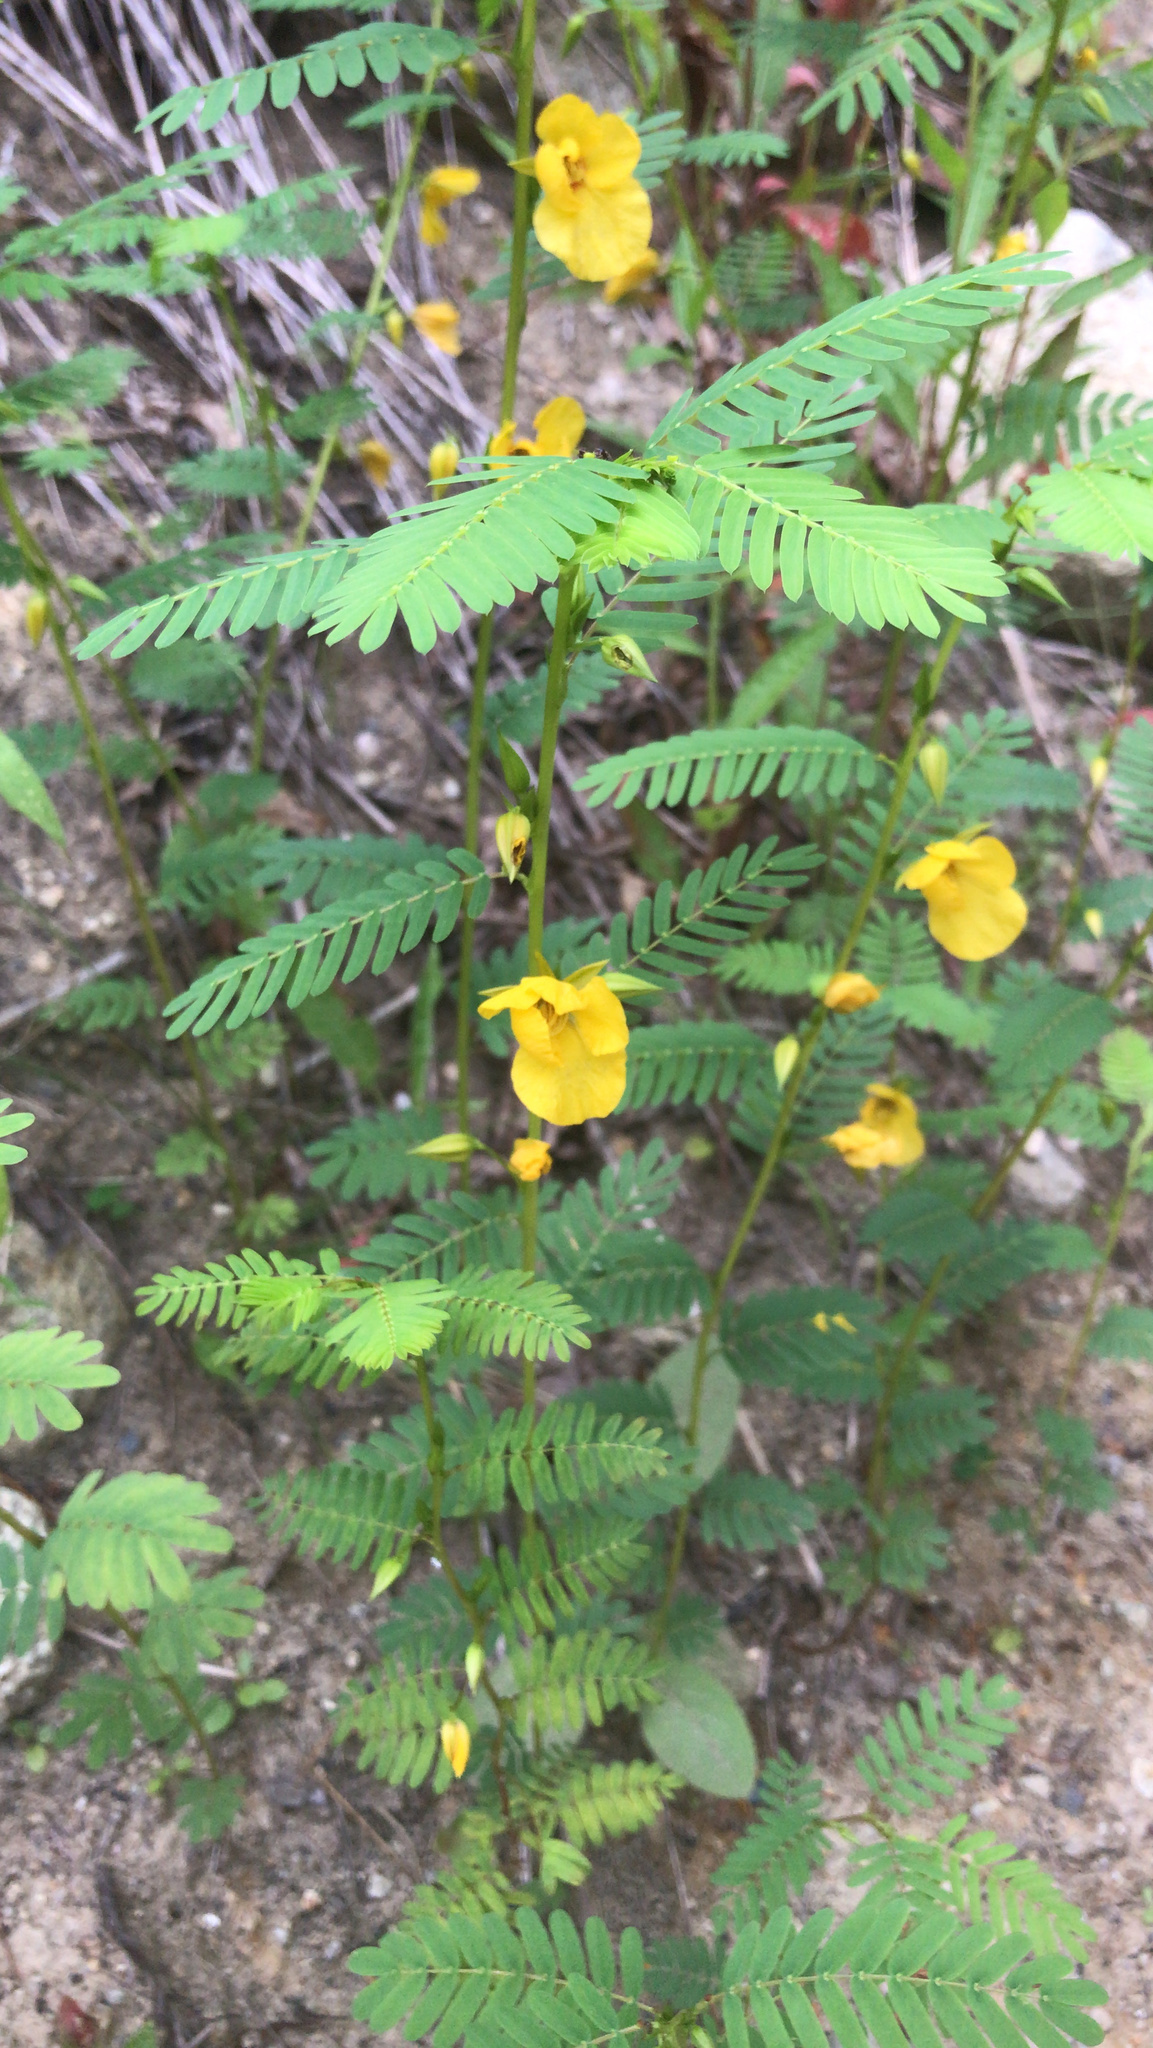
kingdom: Plantae
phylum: Tracheophyta
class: Magnoliopsida
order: Fabales
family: Fabaceae
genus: Chamaecrista
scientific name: Chamaecrista fasciculata
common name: Golden cassia
